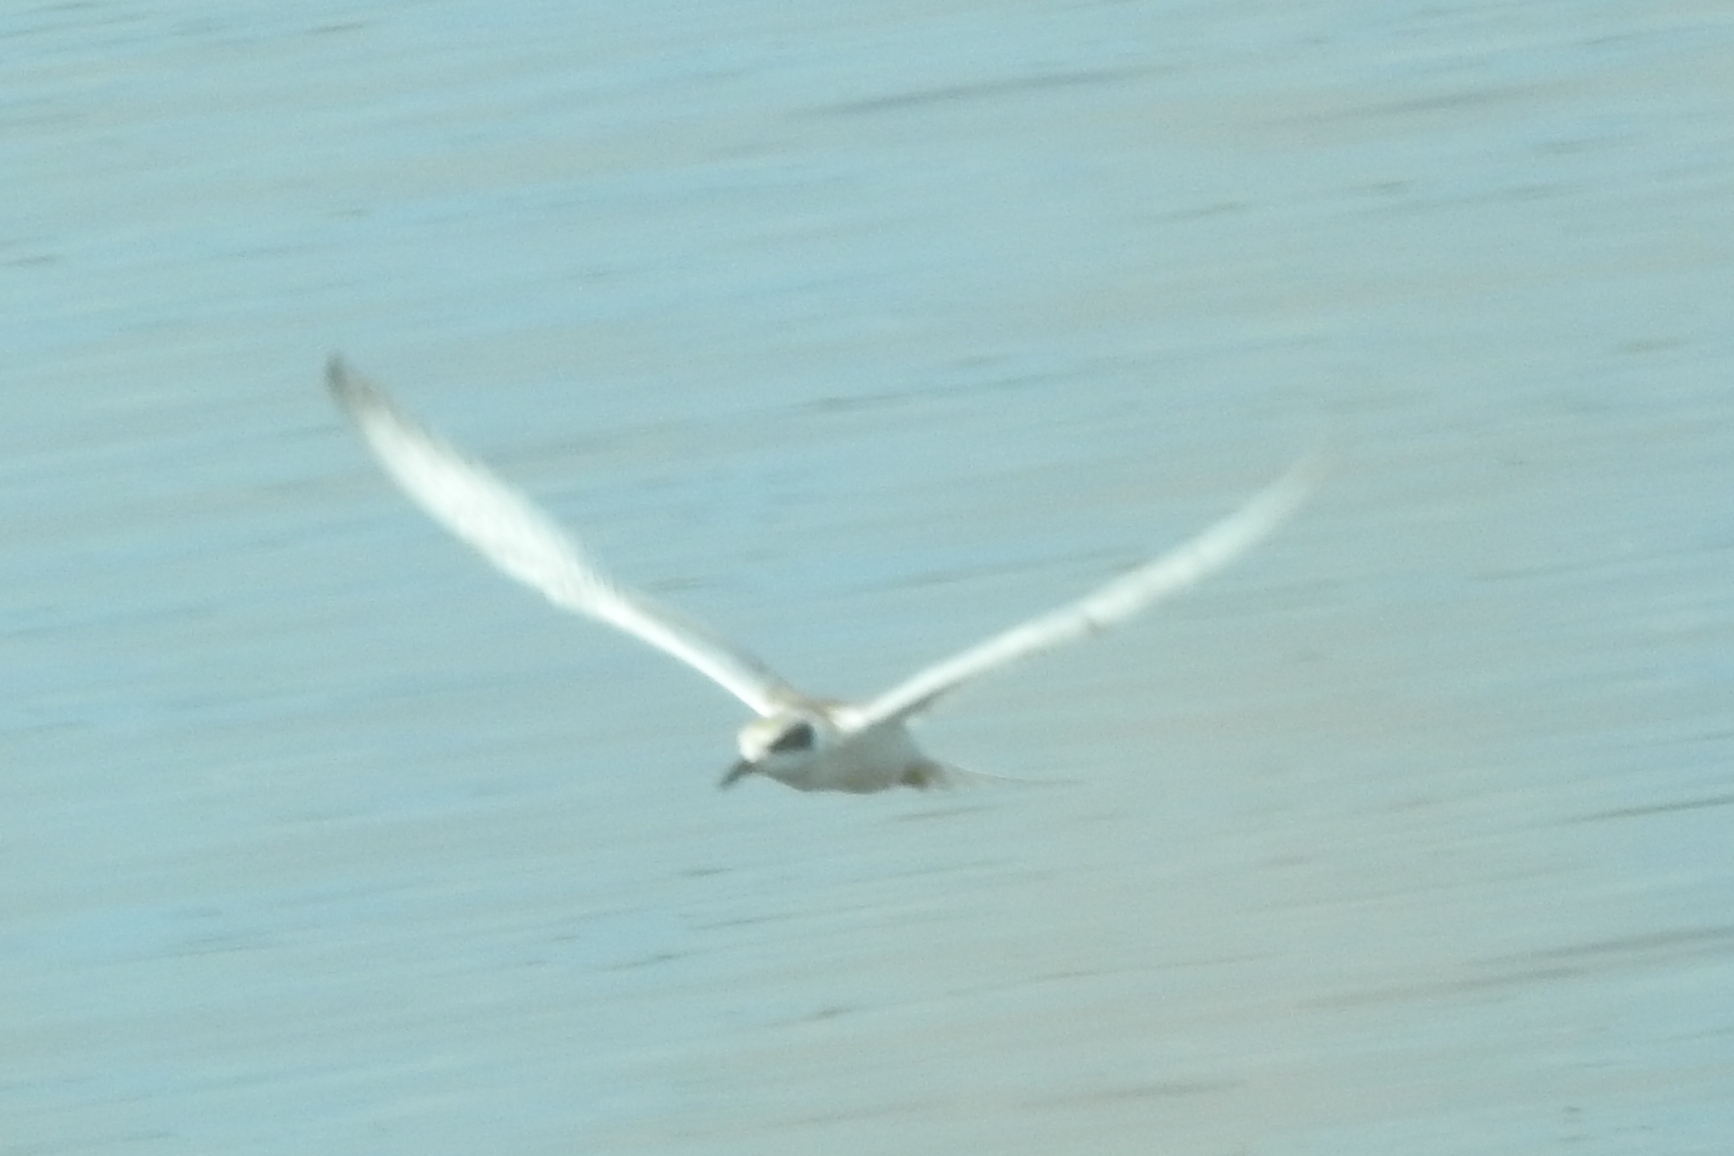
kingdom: Animalia
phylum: Chordata
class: Aves
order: Charadriiformes
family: Laridae
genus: Sterna
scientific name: Sterna forsteri
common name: Forster's tern
